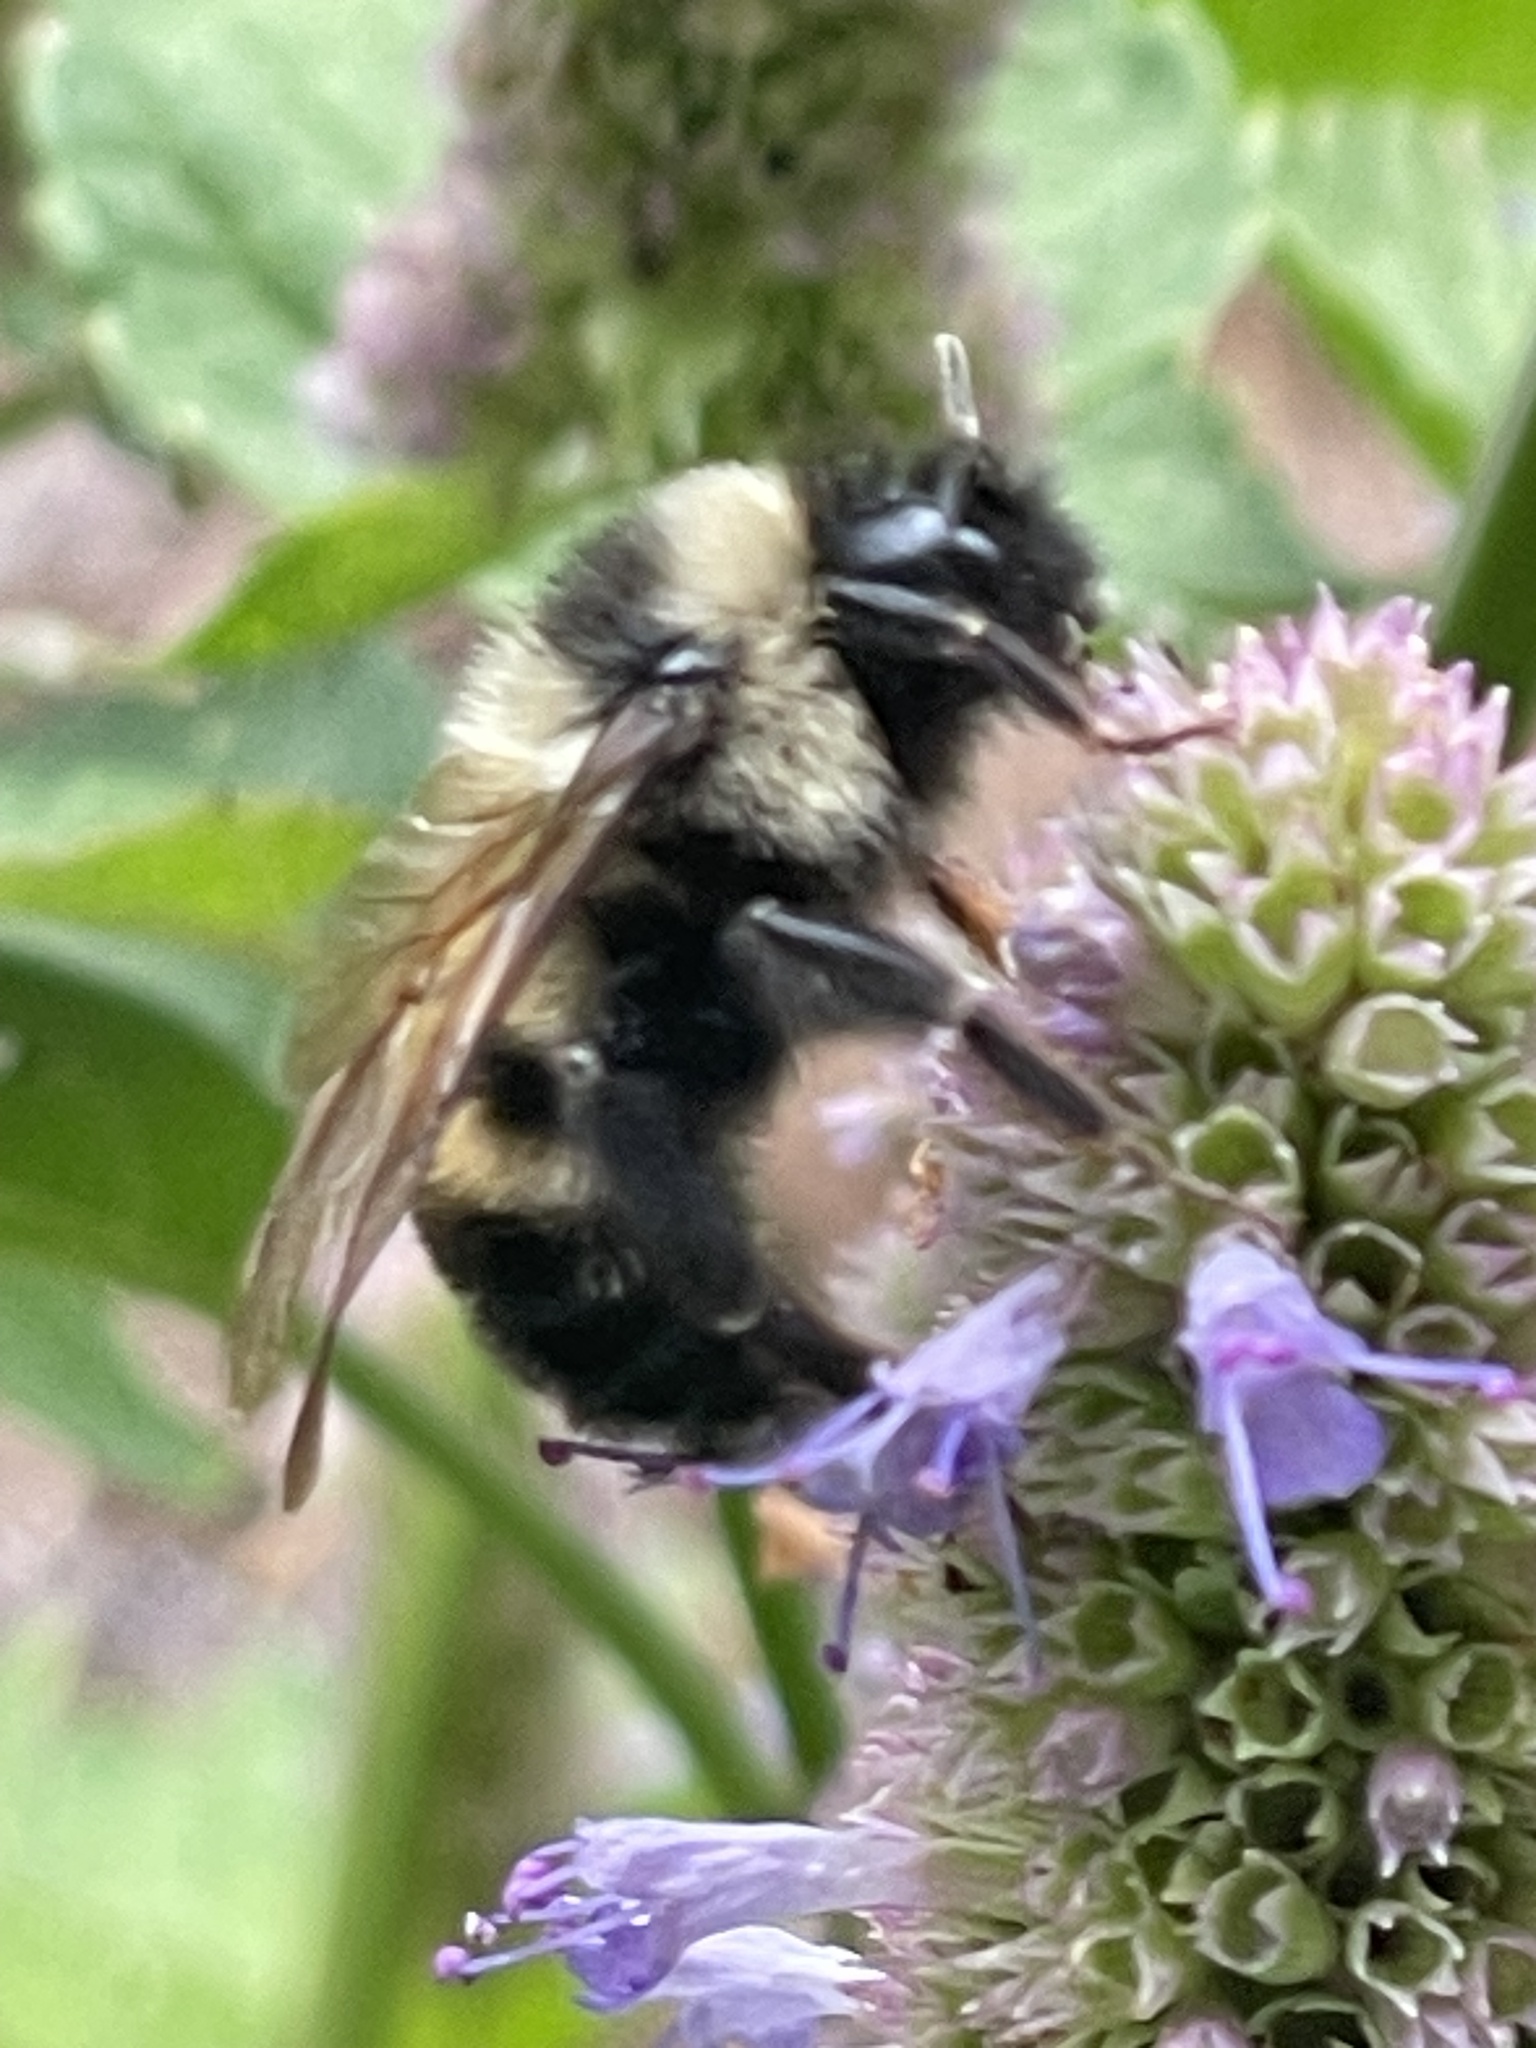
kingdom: Animalia
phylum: Arthropoda
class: Insecta
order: Hymenoptera
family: Apidae
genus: Bombus
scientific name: Bombus citrinus
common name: Lemon cuckoo bumble bee
